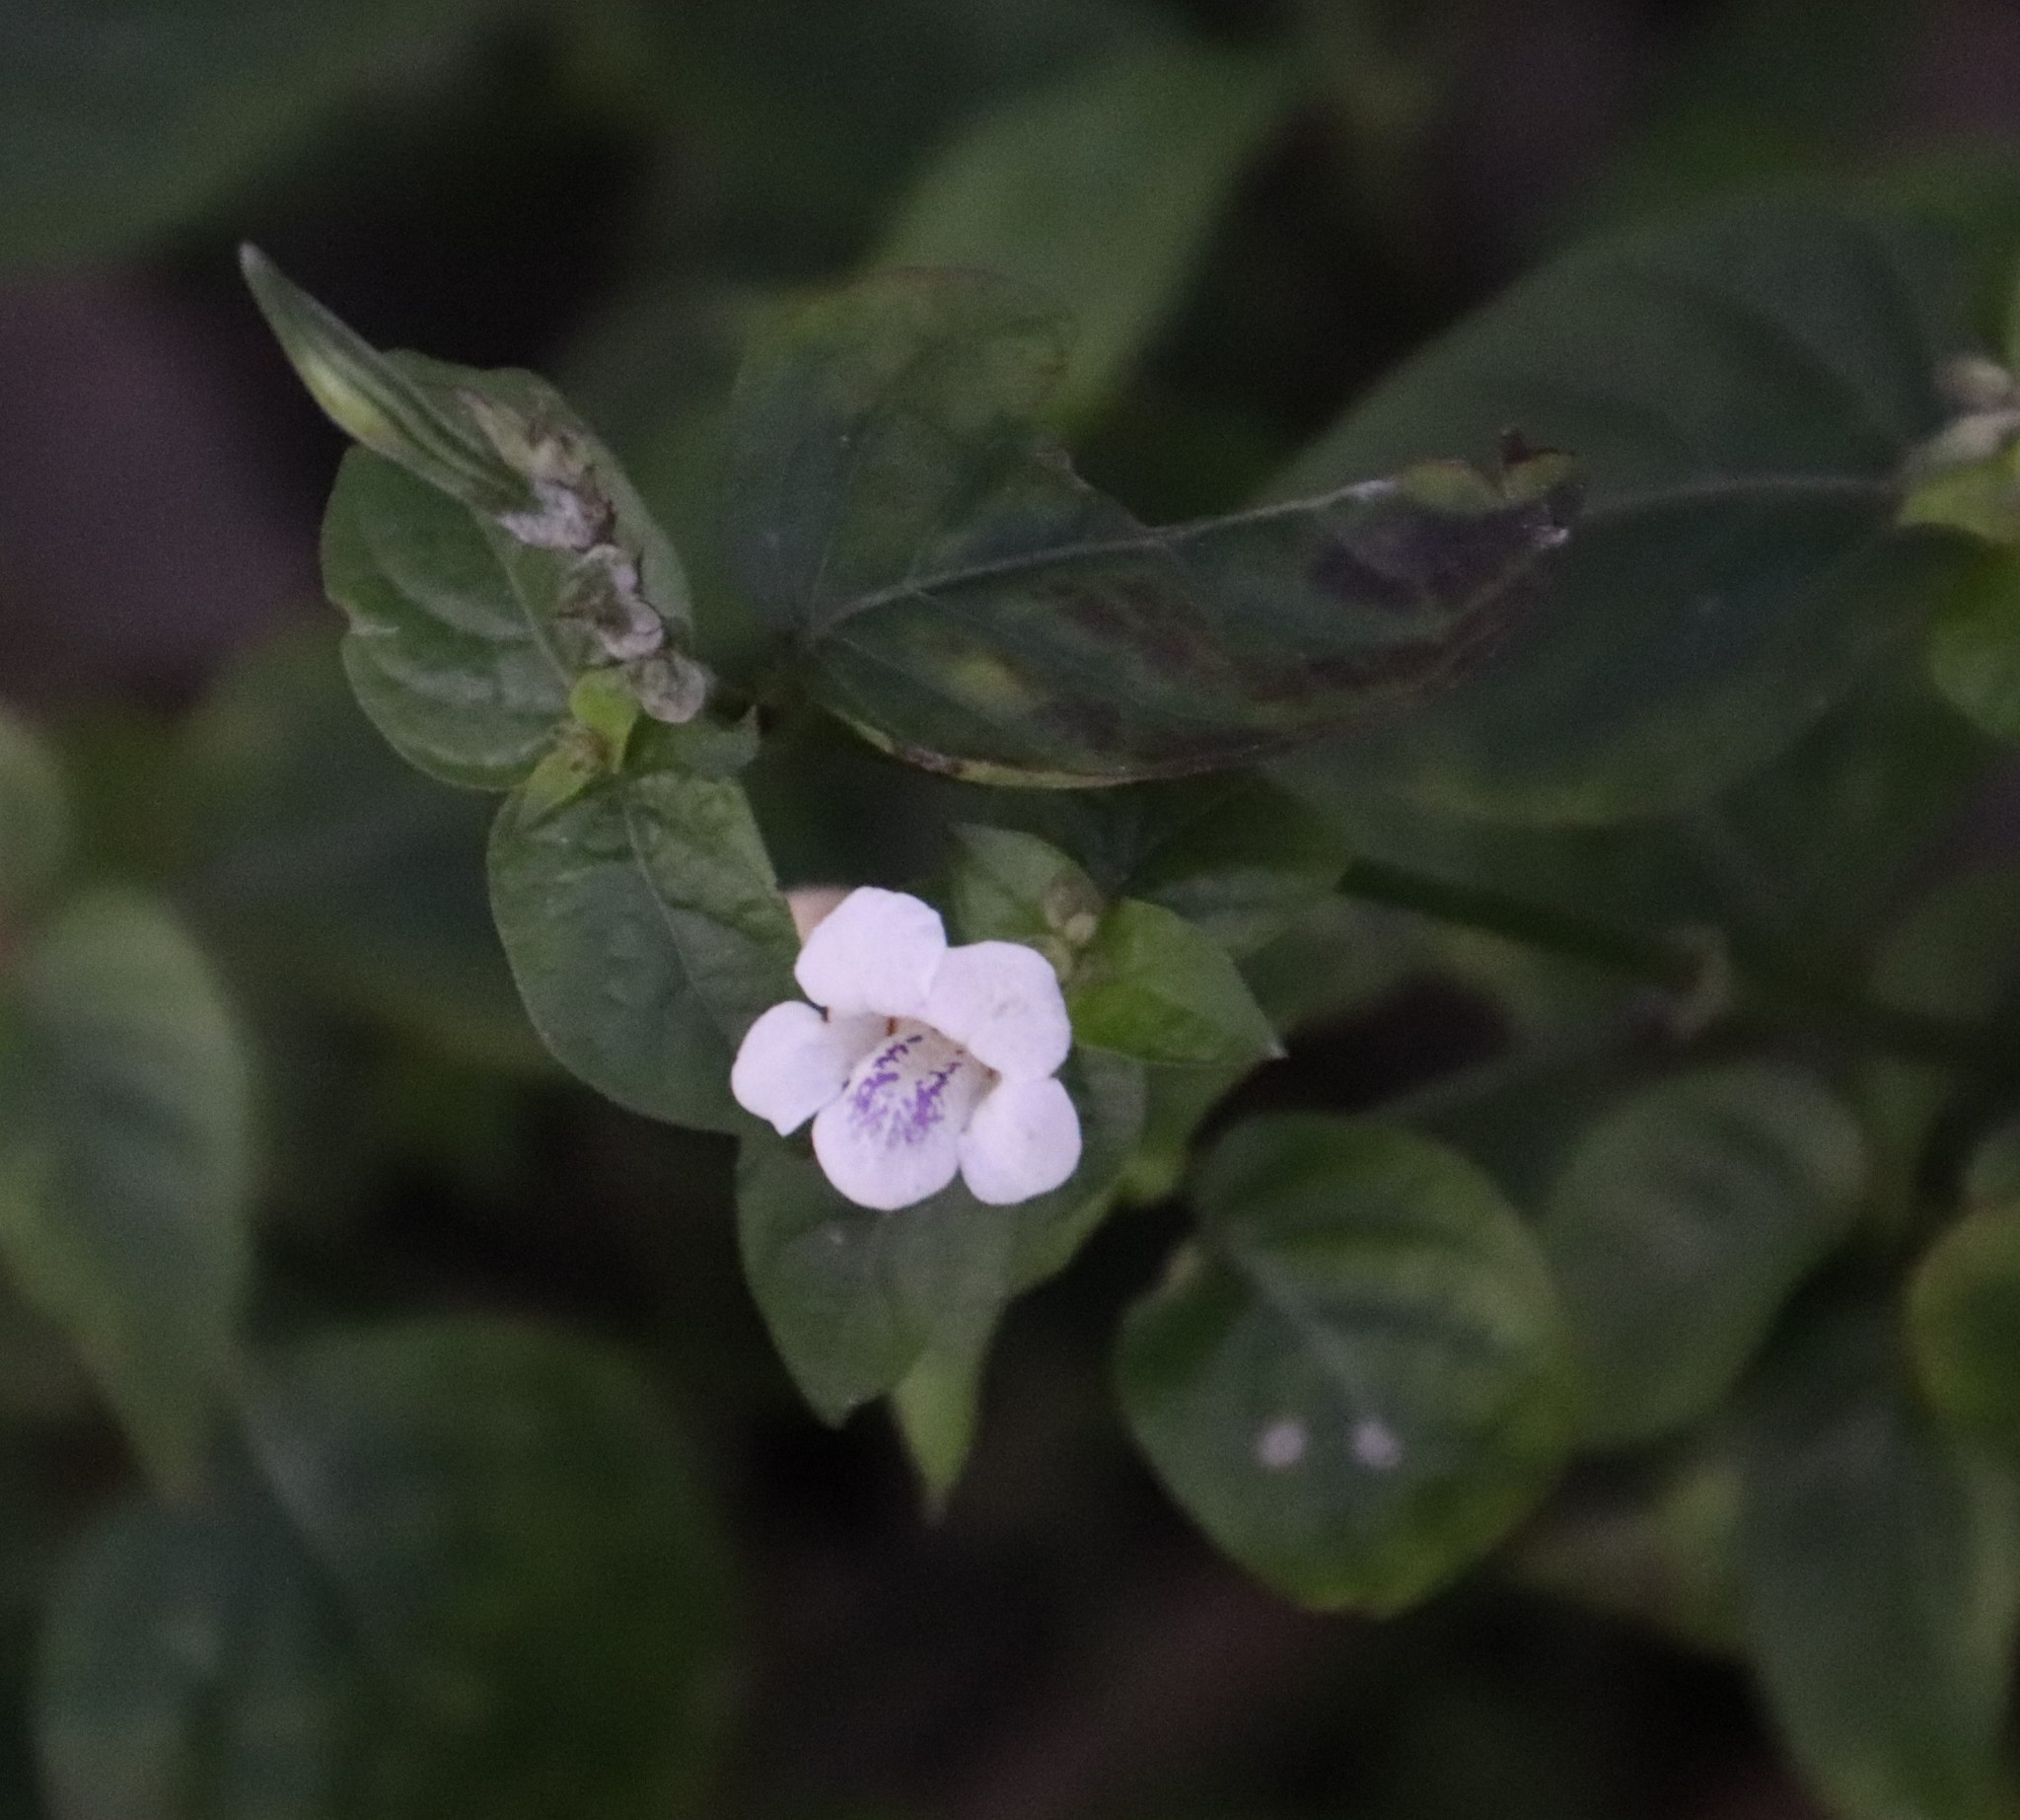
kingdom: Plantae
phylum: Tracheophyta
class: Magnoliopsida
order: Lamiales
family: Acanthaceae
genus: Asystasia
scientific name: Asystasia intrusa
